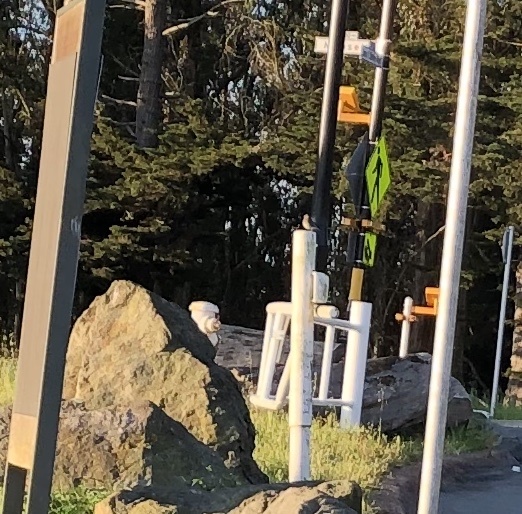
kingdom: Animalia
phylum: Chordata
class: Aves
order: Passeriformes
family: Turdidae
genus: Sialia
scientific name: Sialia mexicana
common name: Western bluebird
